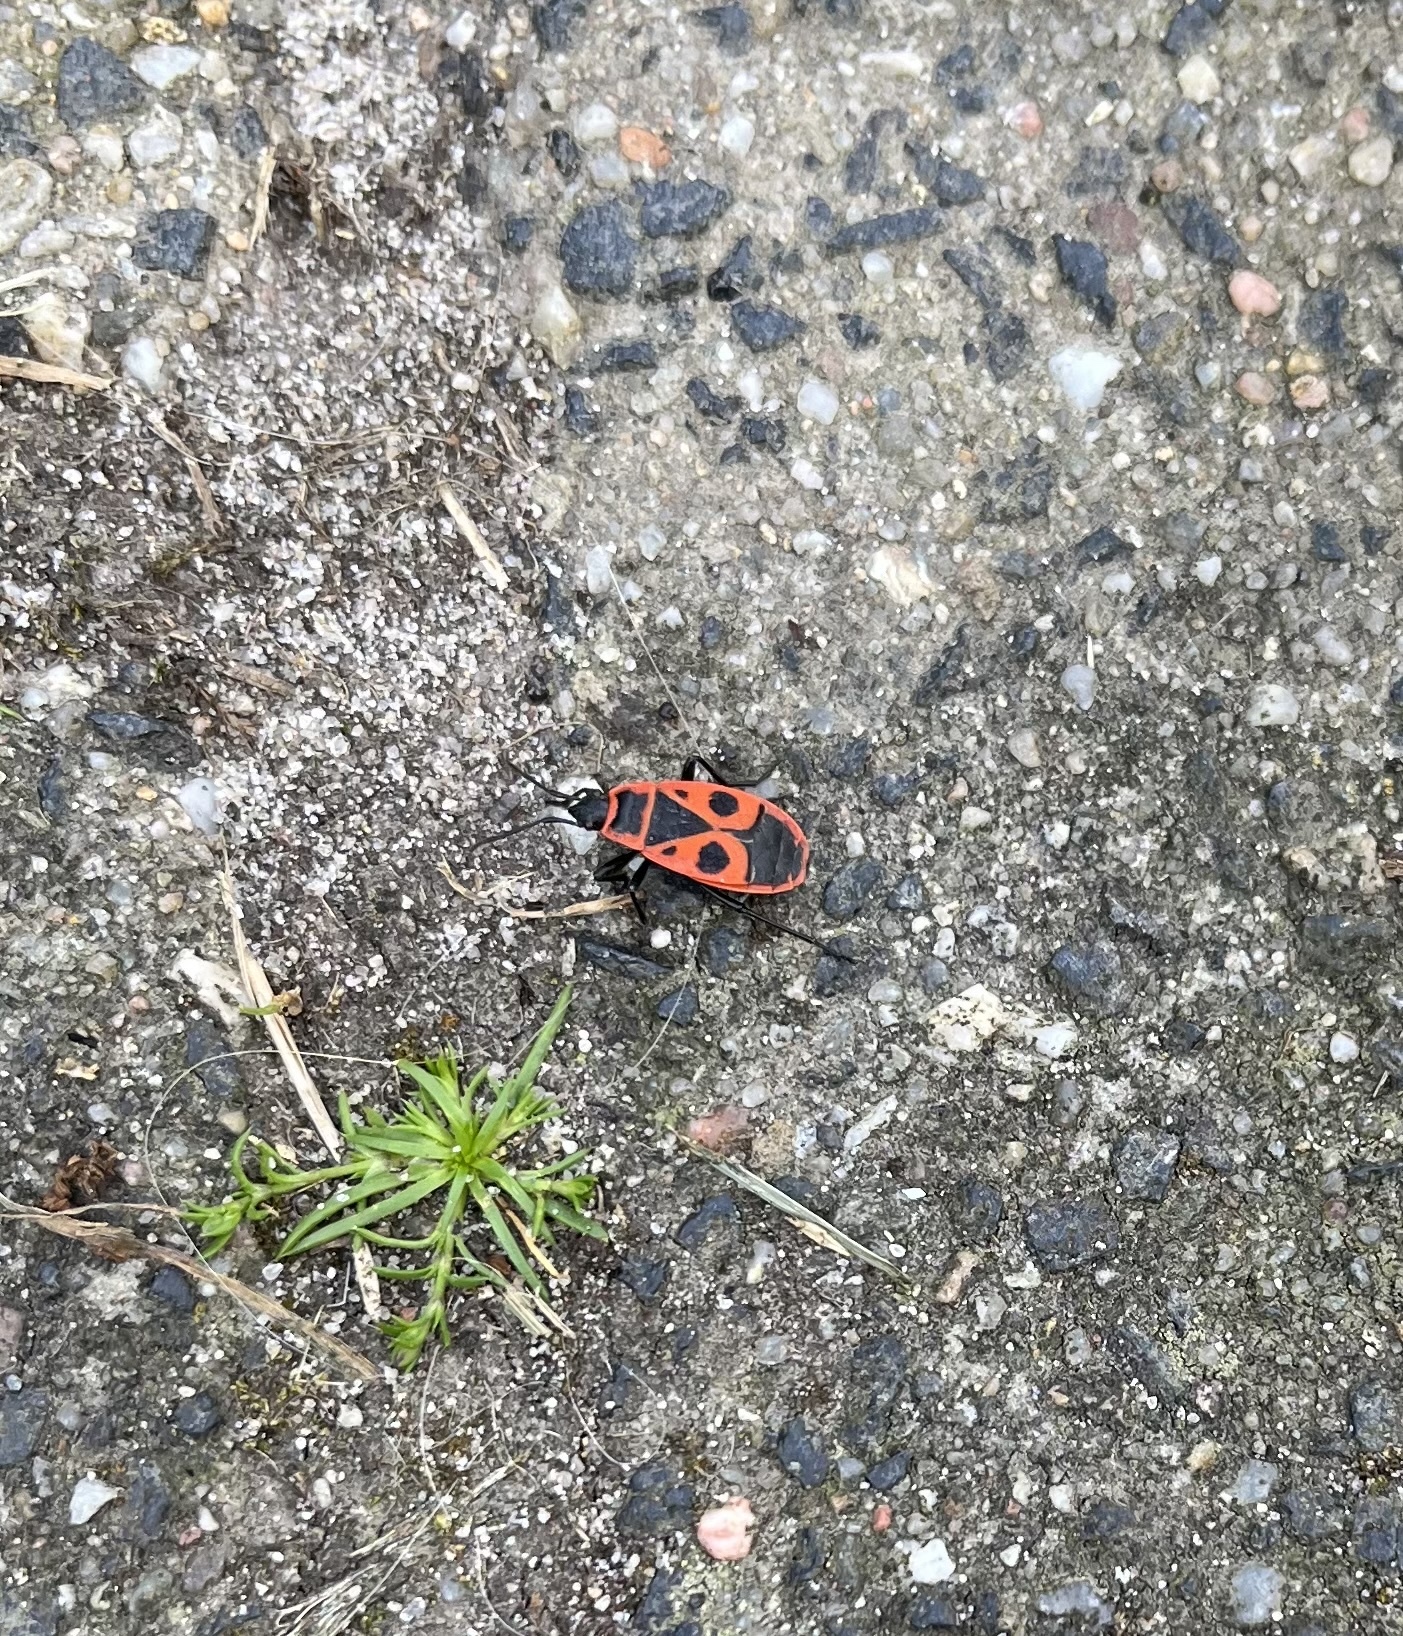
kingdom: Animalia
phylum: Arthropoda
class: Insecta
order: Hemiptera
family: Pyrrhocoridae
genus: Pyrrhocoris
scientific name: Pyrrhocoris apterus
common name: Firebug
